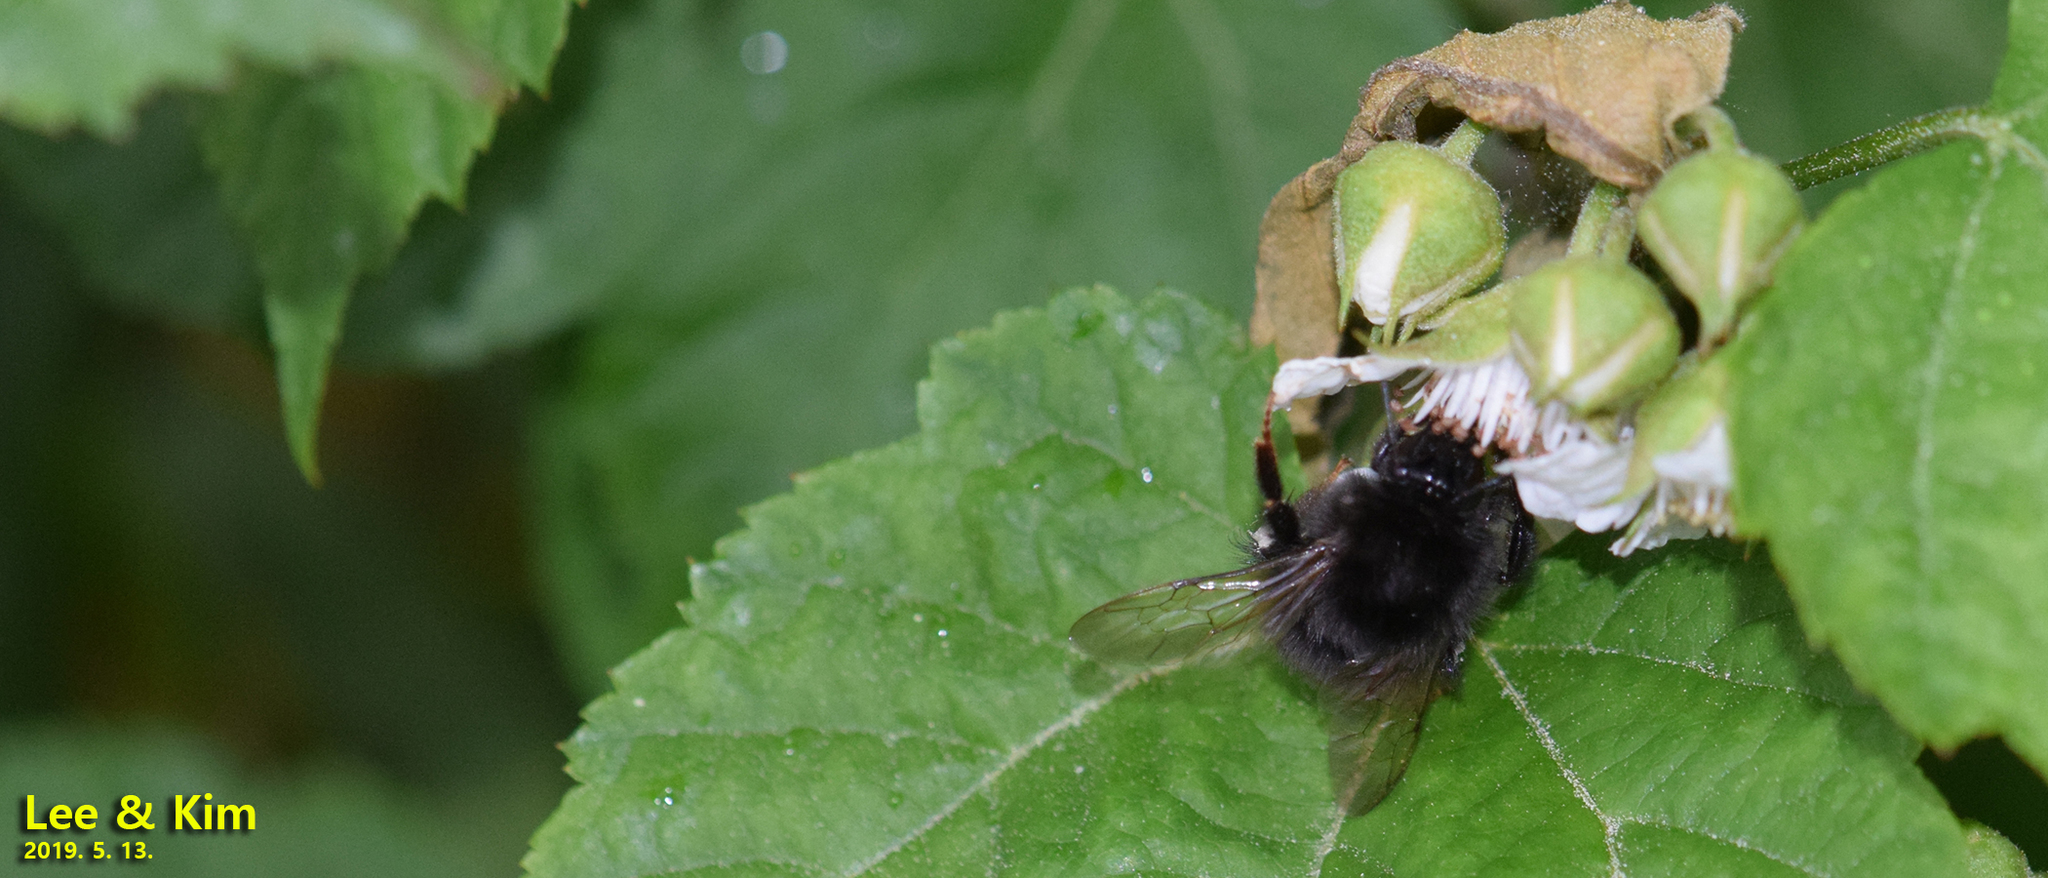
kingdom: Animalia
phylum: Arthropoda
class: Insecta
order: Hymenoptera
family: Apidae
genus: Bombus
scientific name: Bombus ignitus
